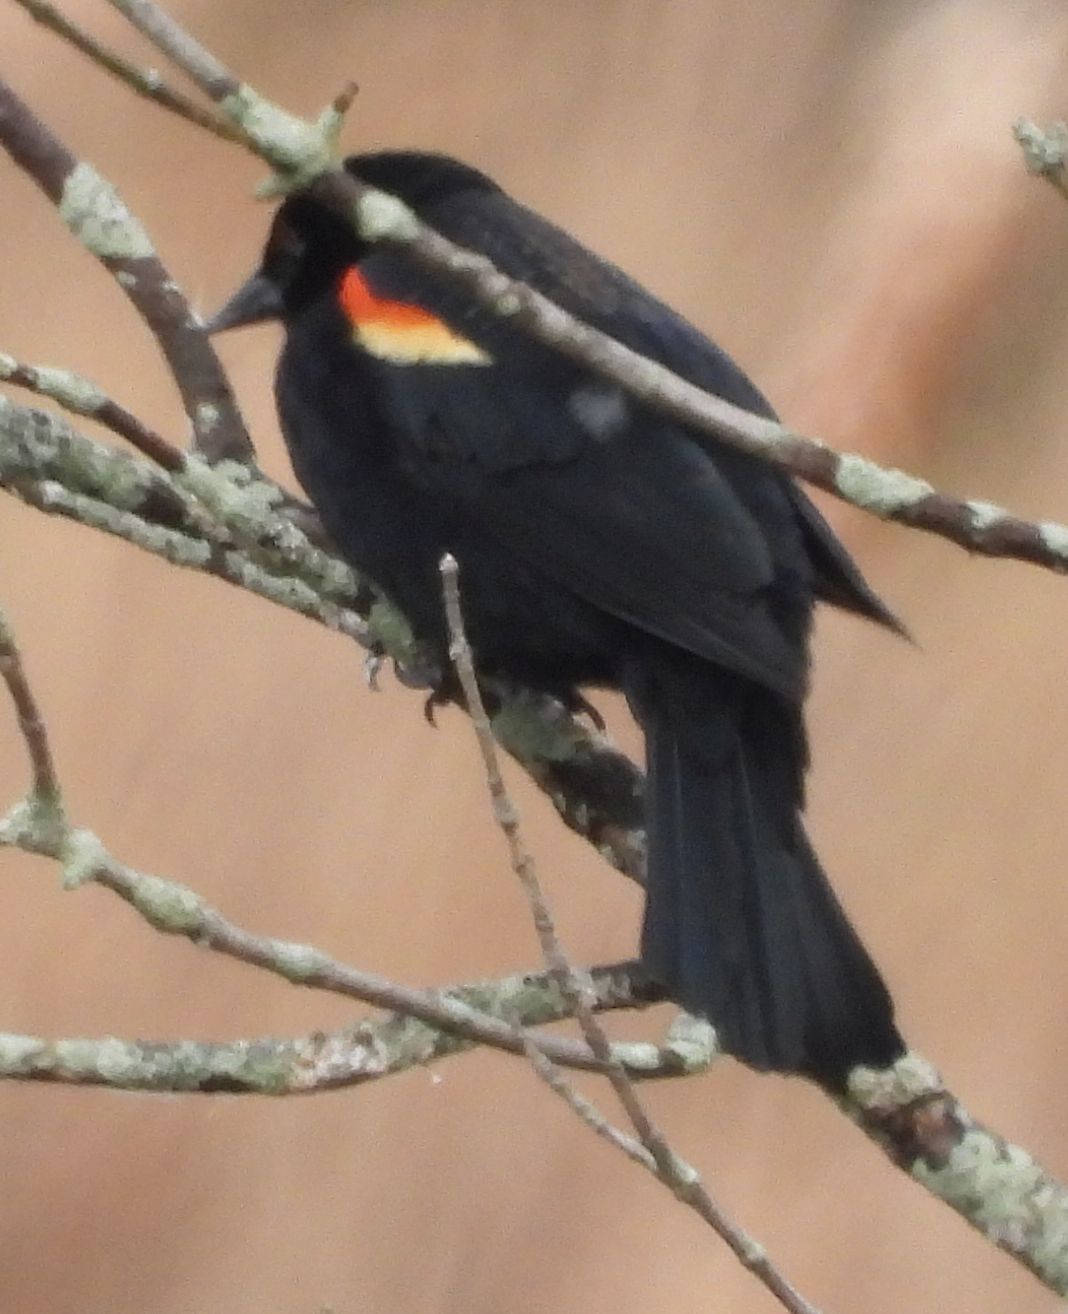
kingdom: Animalia
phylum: Chordata
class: Aves
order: Passeriformes
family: Icteridae
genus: Agelaius
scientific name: Agelaius phoeniceus
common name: Red-winged blackbird
